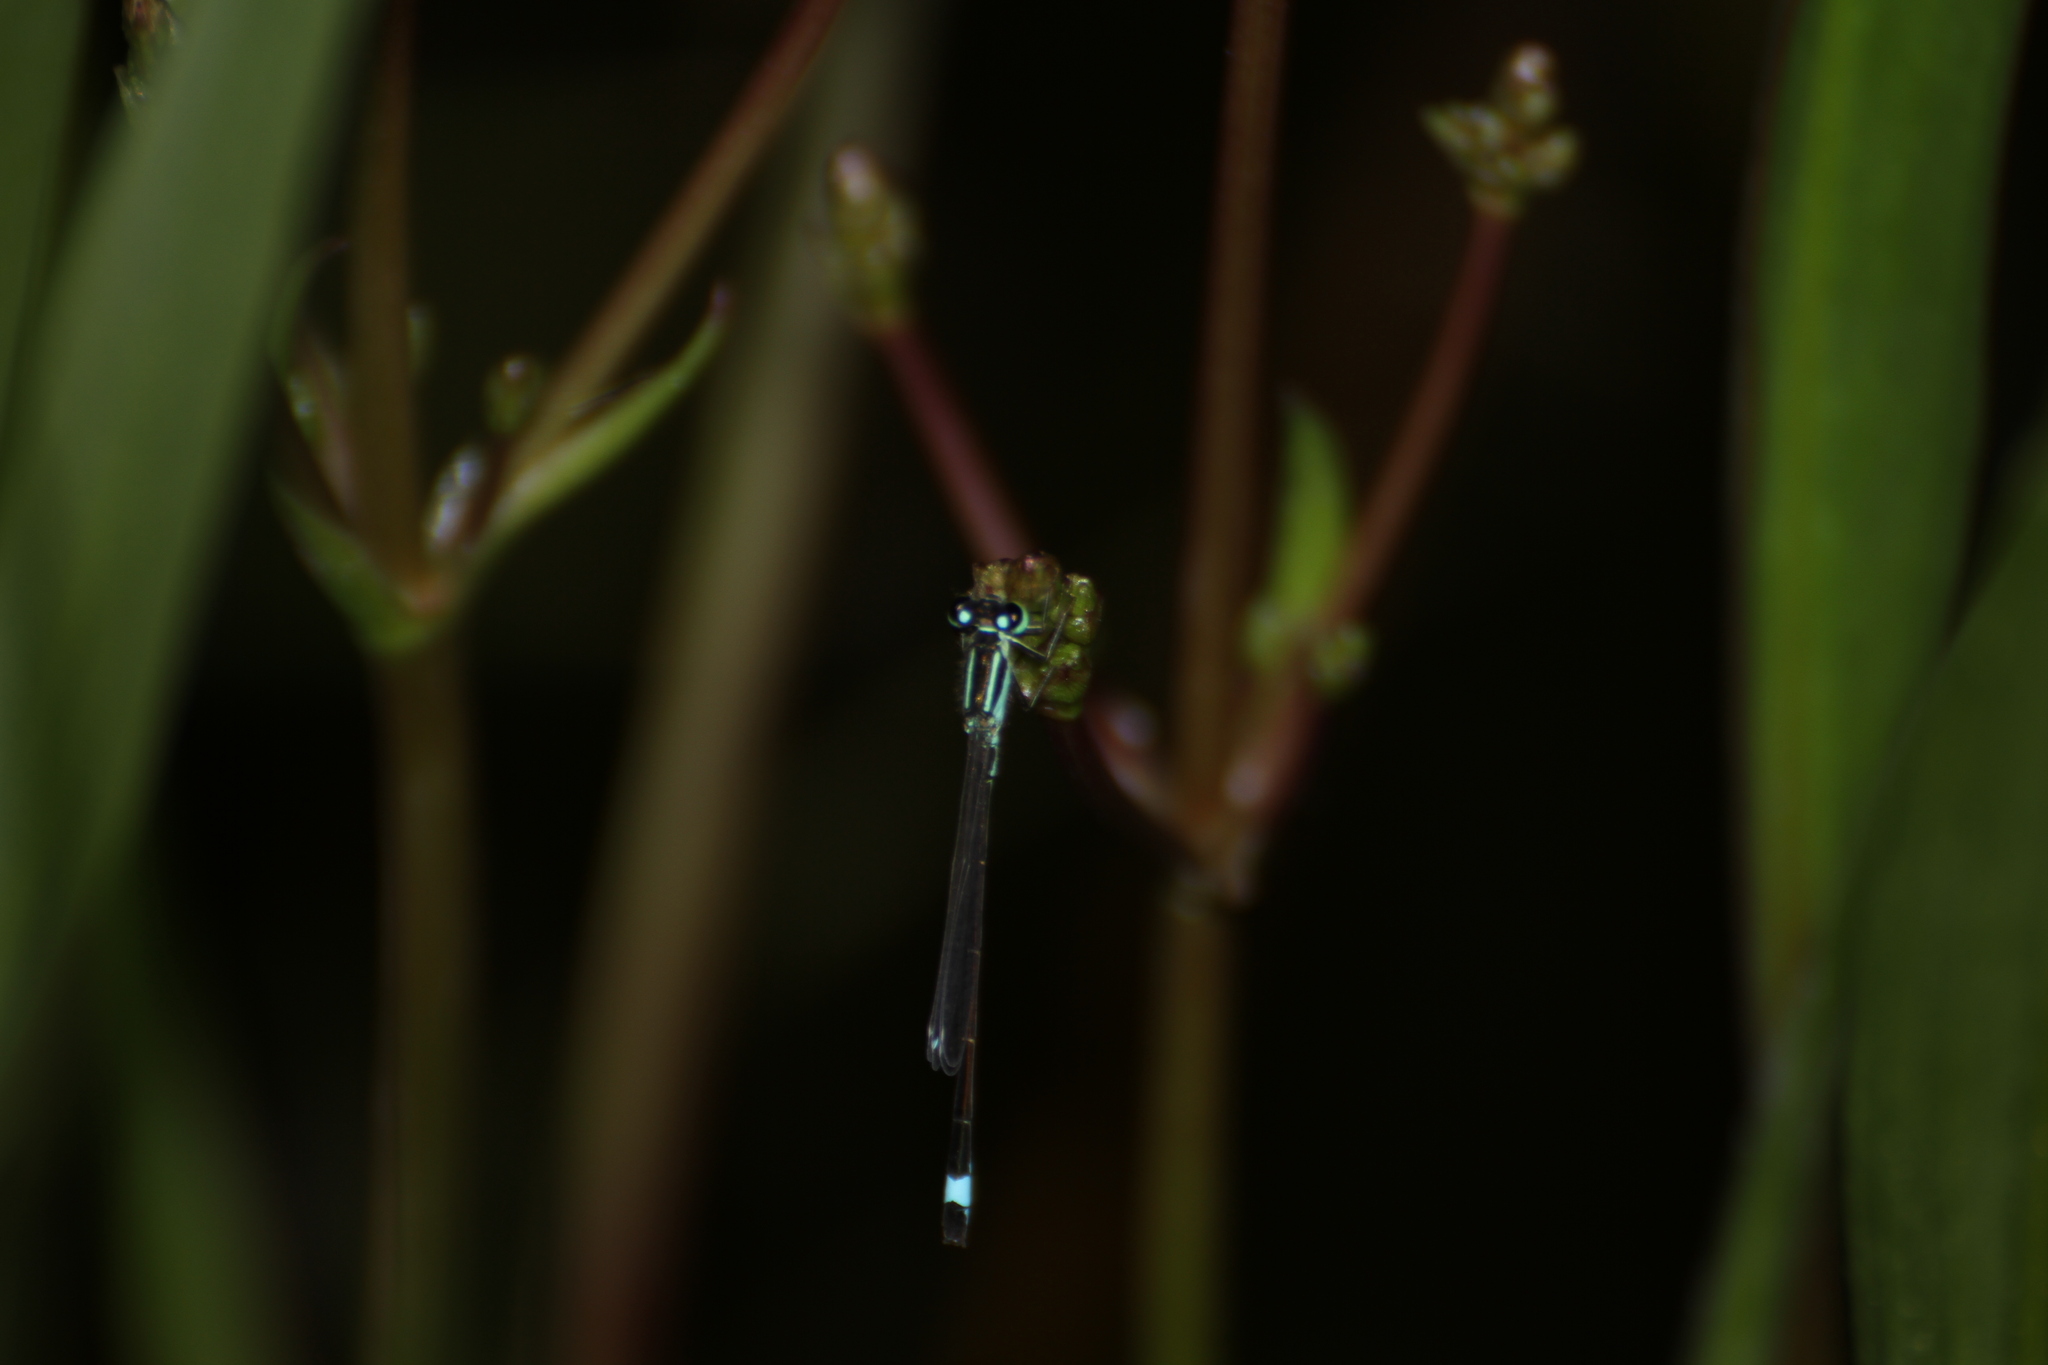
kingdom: Animalia
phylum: Arthropoda
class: Insecta
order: Odonata
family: Coenagrionidae
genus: Ischnura
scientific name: Ischnura elegans
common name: Blue-tailed damselfly
